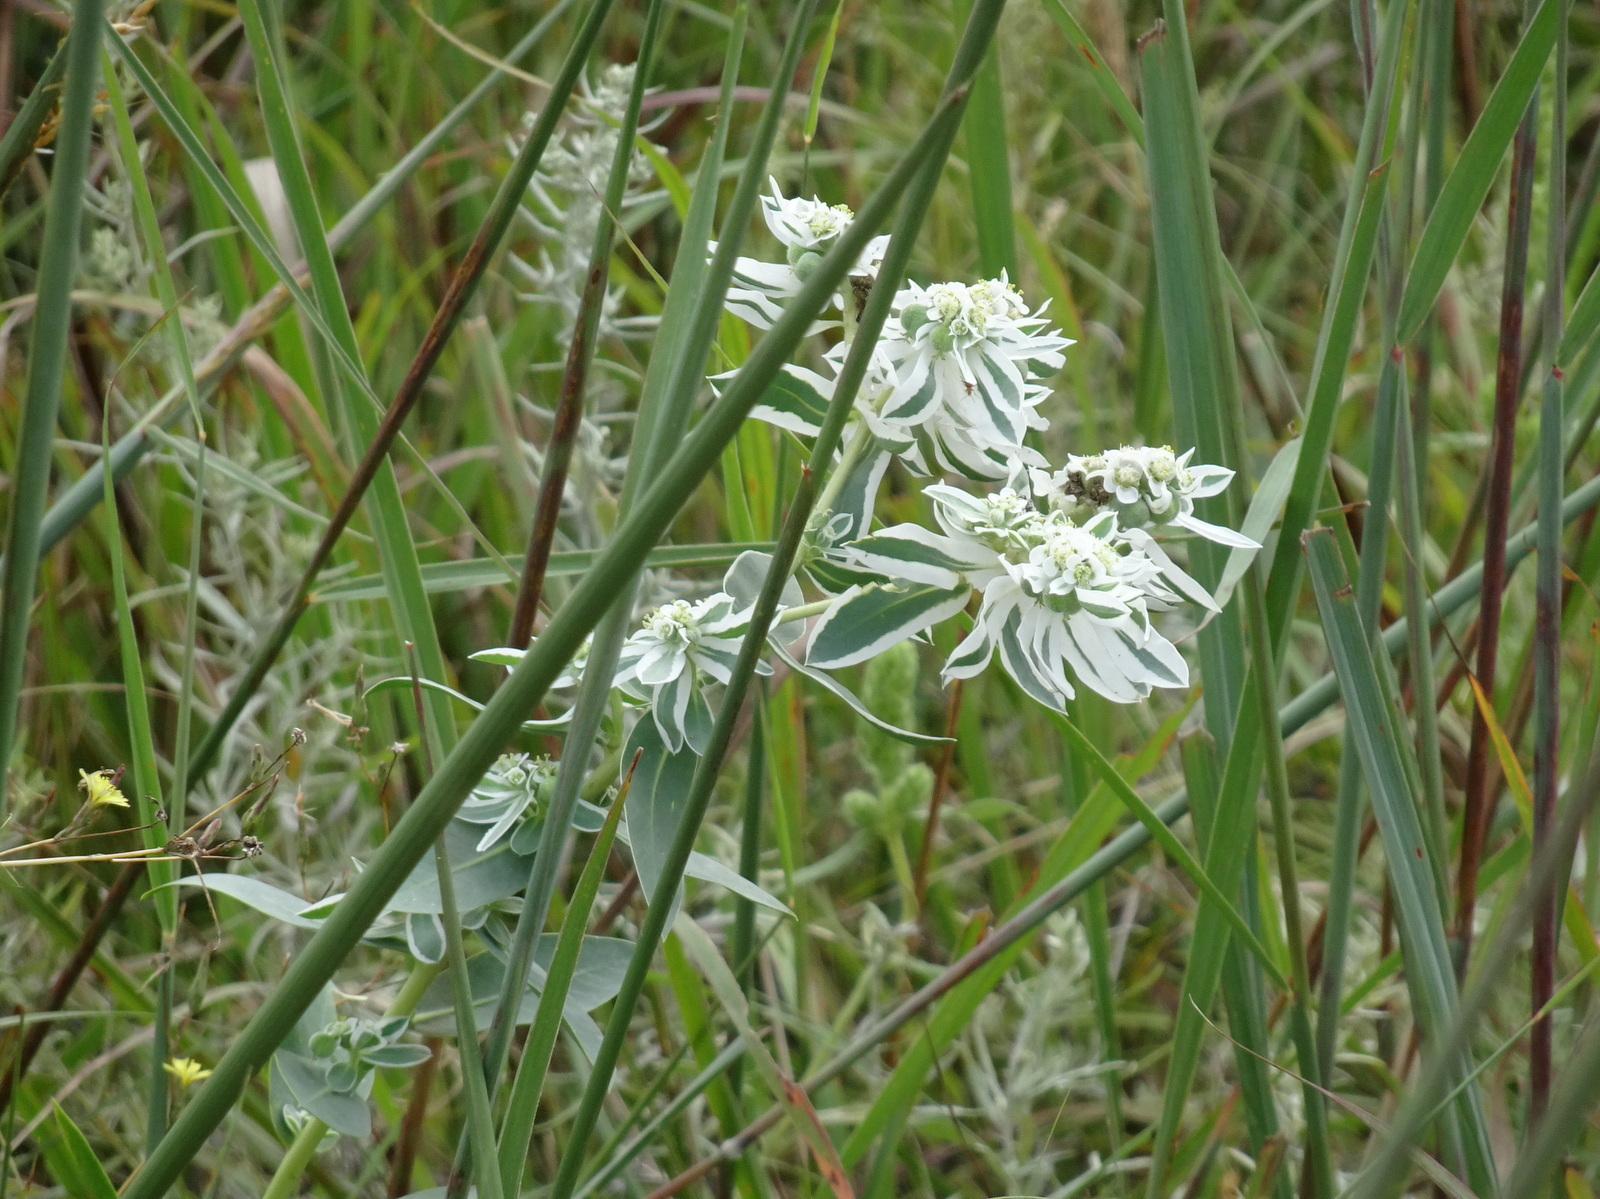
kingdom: Plantae
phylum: Tracheophyta
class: Magnoliopsida
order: Malpighiales
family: Euphorbiaceae
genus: Euphorbia
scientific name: Euphorbia marginata
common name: Ghostweed
